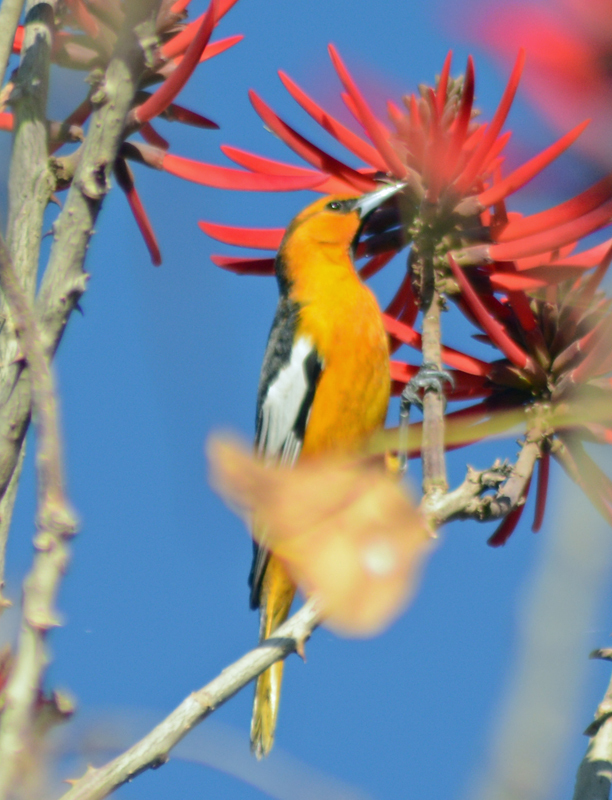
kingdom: Animalia
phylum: Chordata
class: Aves
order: Passeriformes
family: Icteridae
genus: Icterus
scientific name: Icterus bullockii
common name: Bullock's oriole
